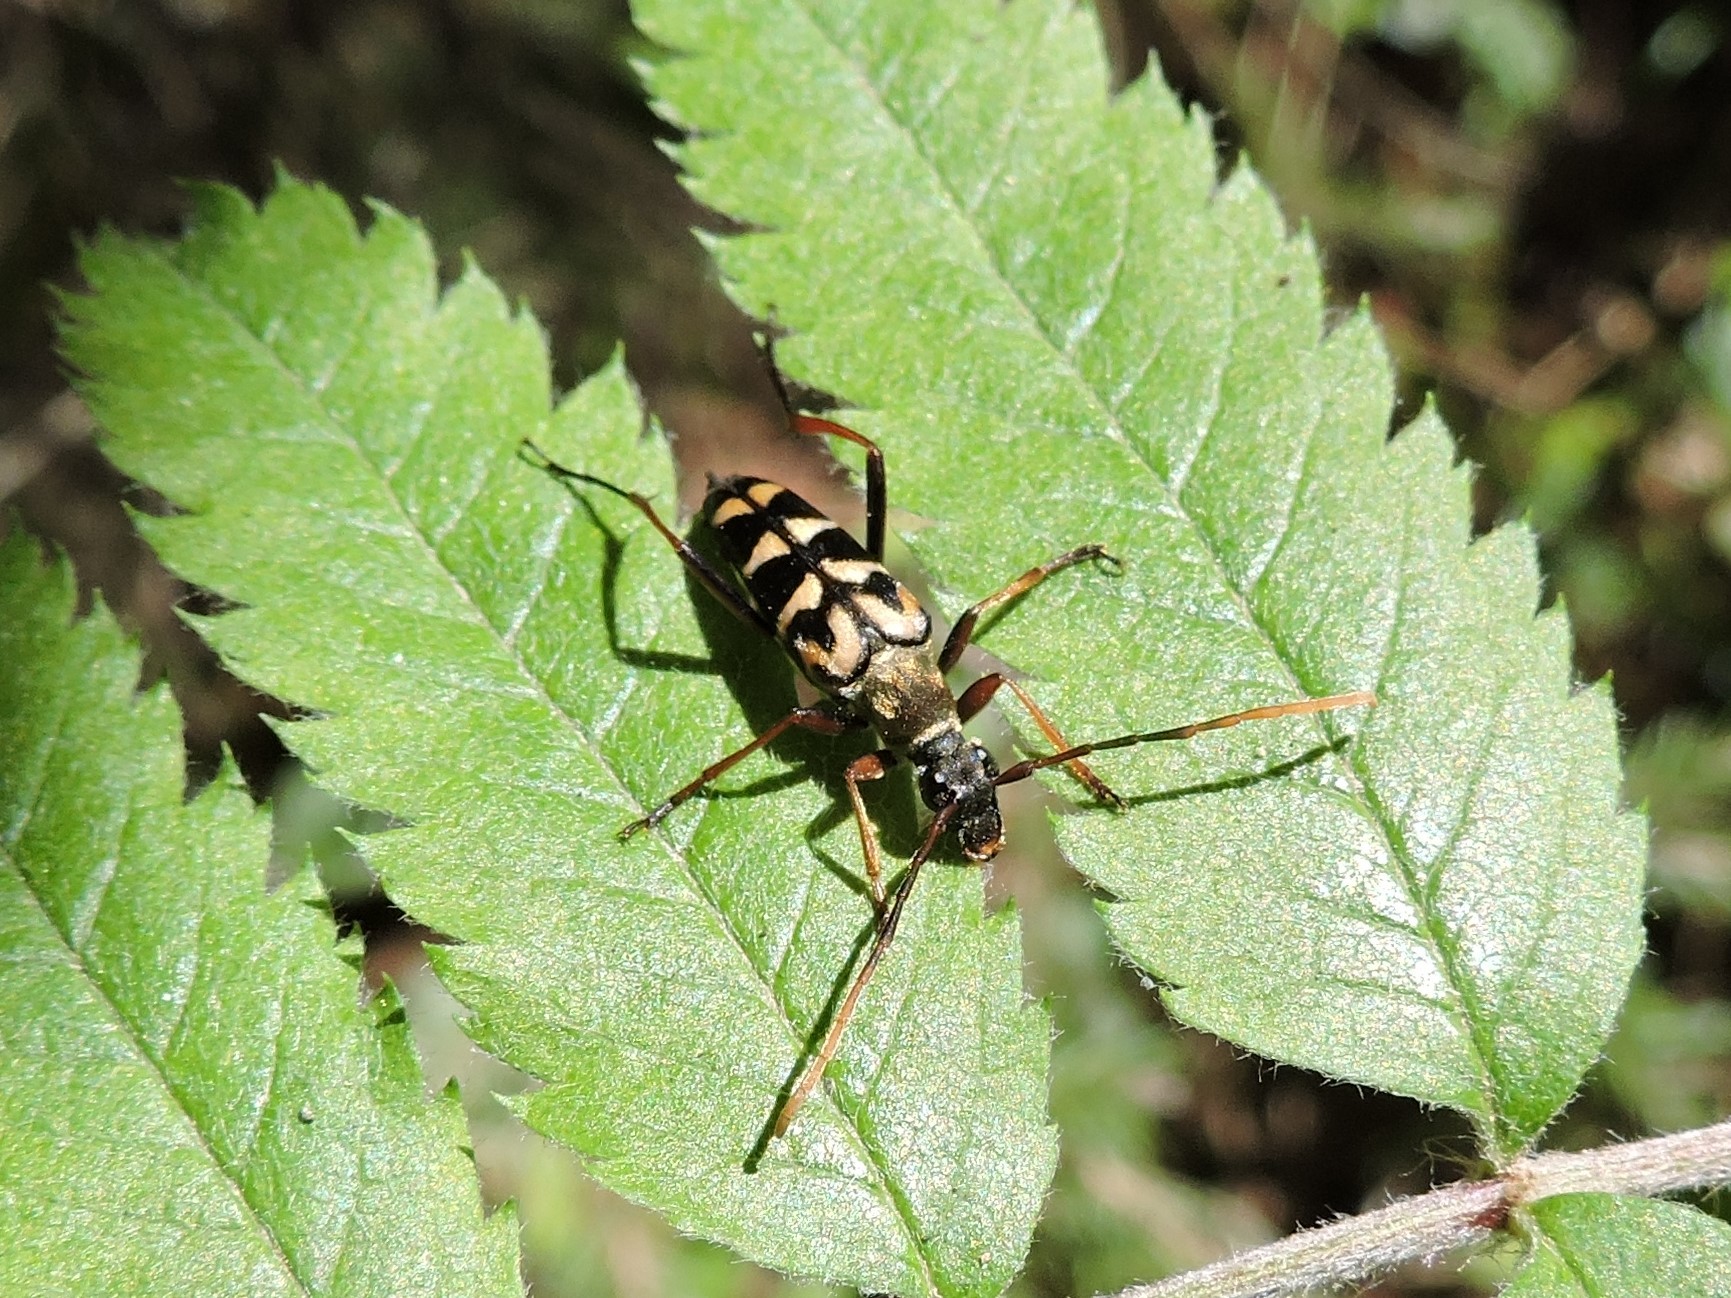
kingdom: Animalia
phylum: Arthropoda
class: Insecta
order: Coleoptera
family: Cerambycidae
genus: Leptura
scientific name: Leptura annularis
